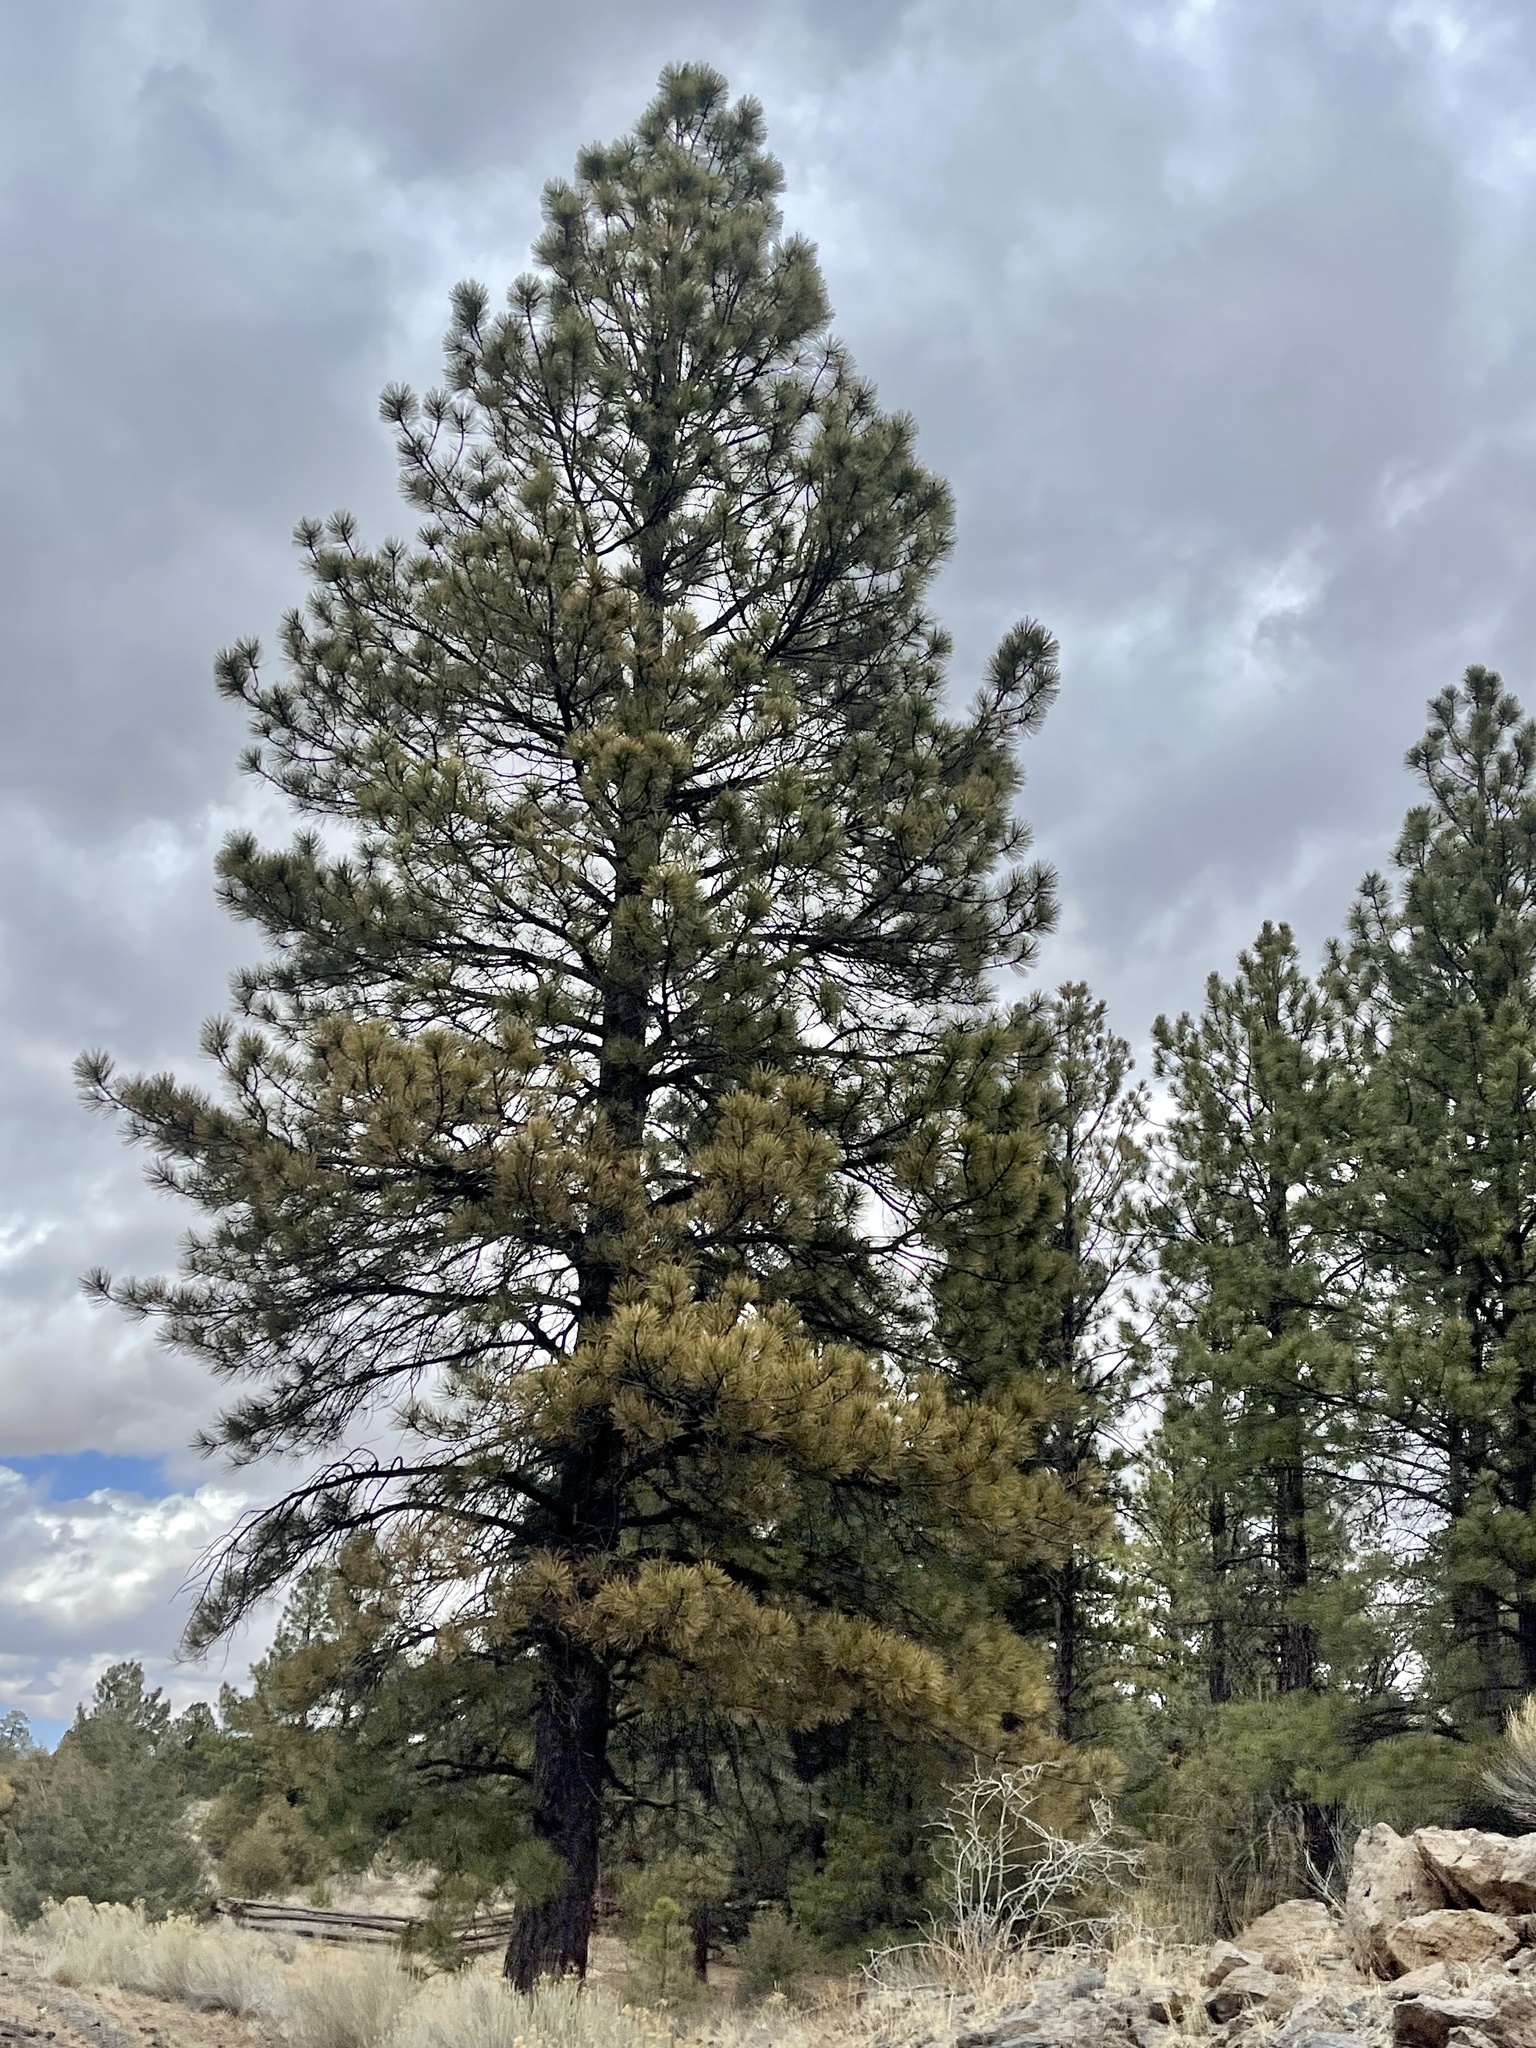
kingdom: Plantae
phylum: Tracheophyta
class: Pinopsida
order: Pinales
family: Pinaceae
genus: Pinus
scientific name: Pinus ponderosa
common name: Western yellow-pine
